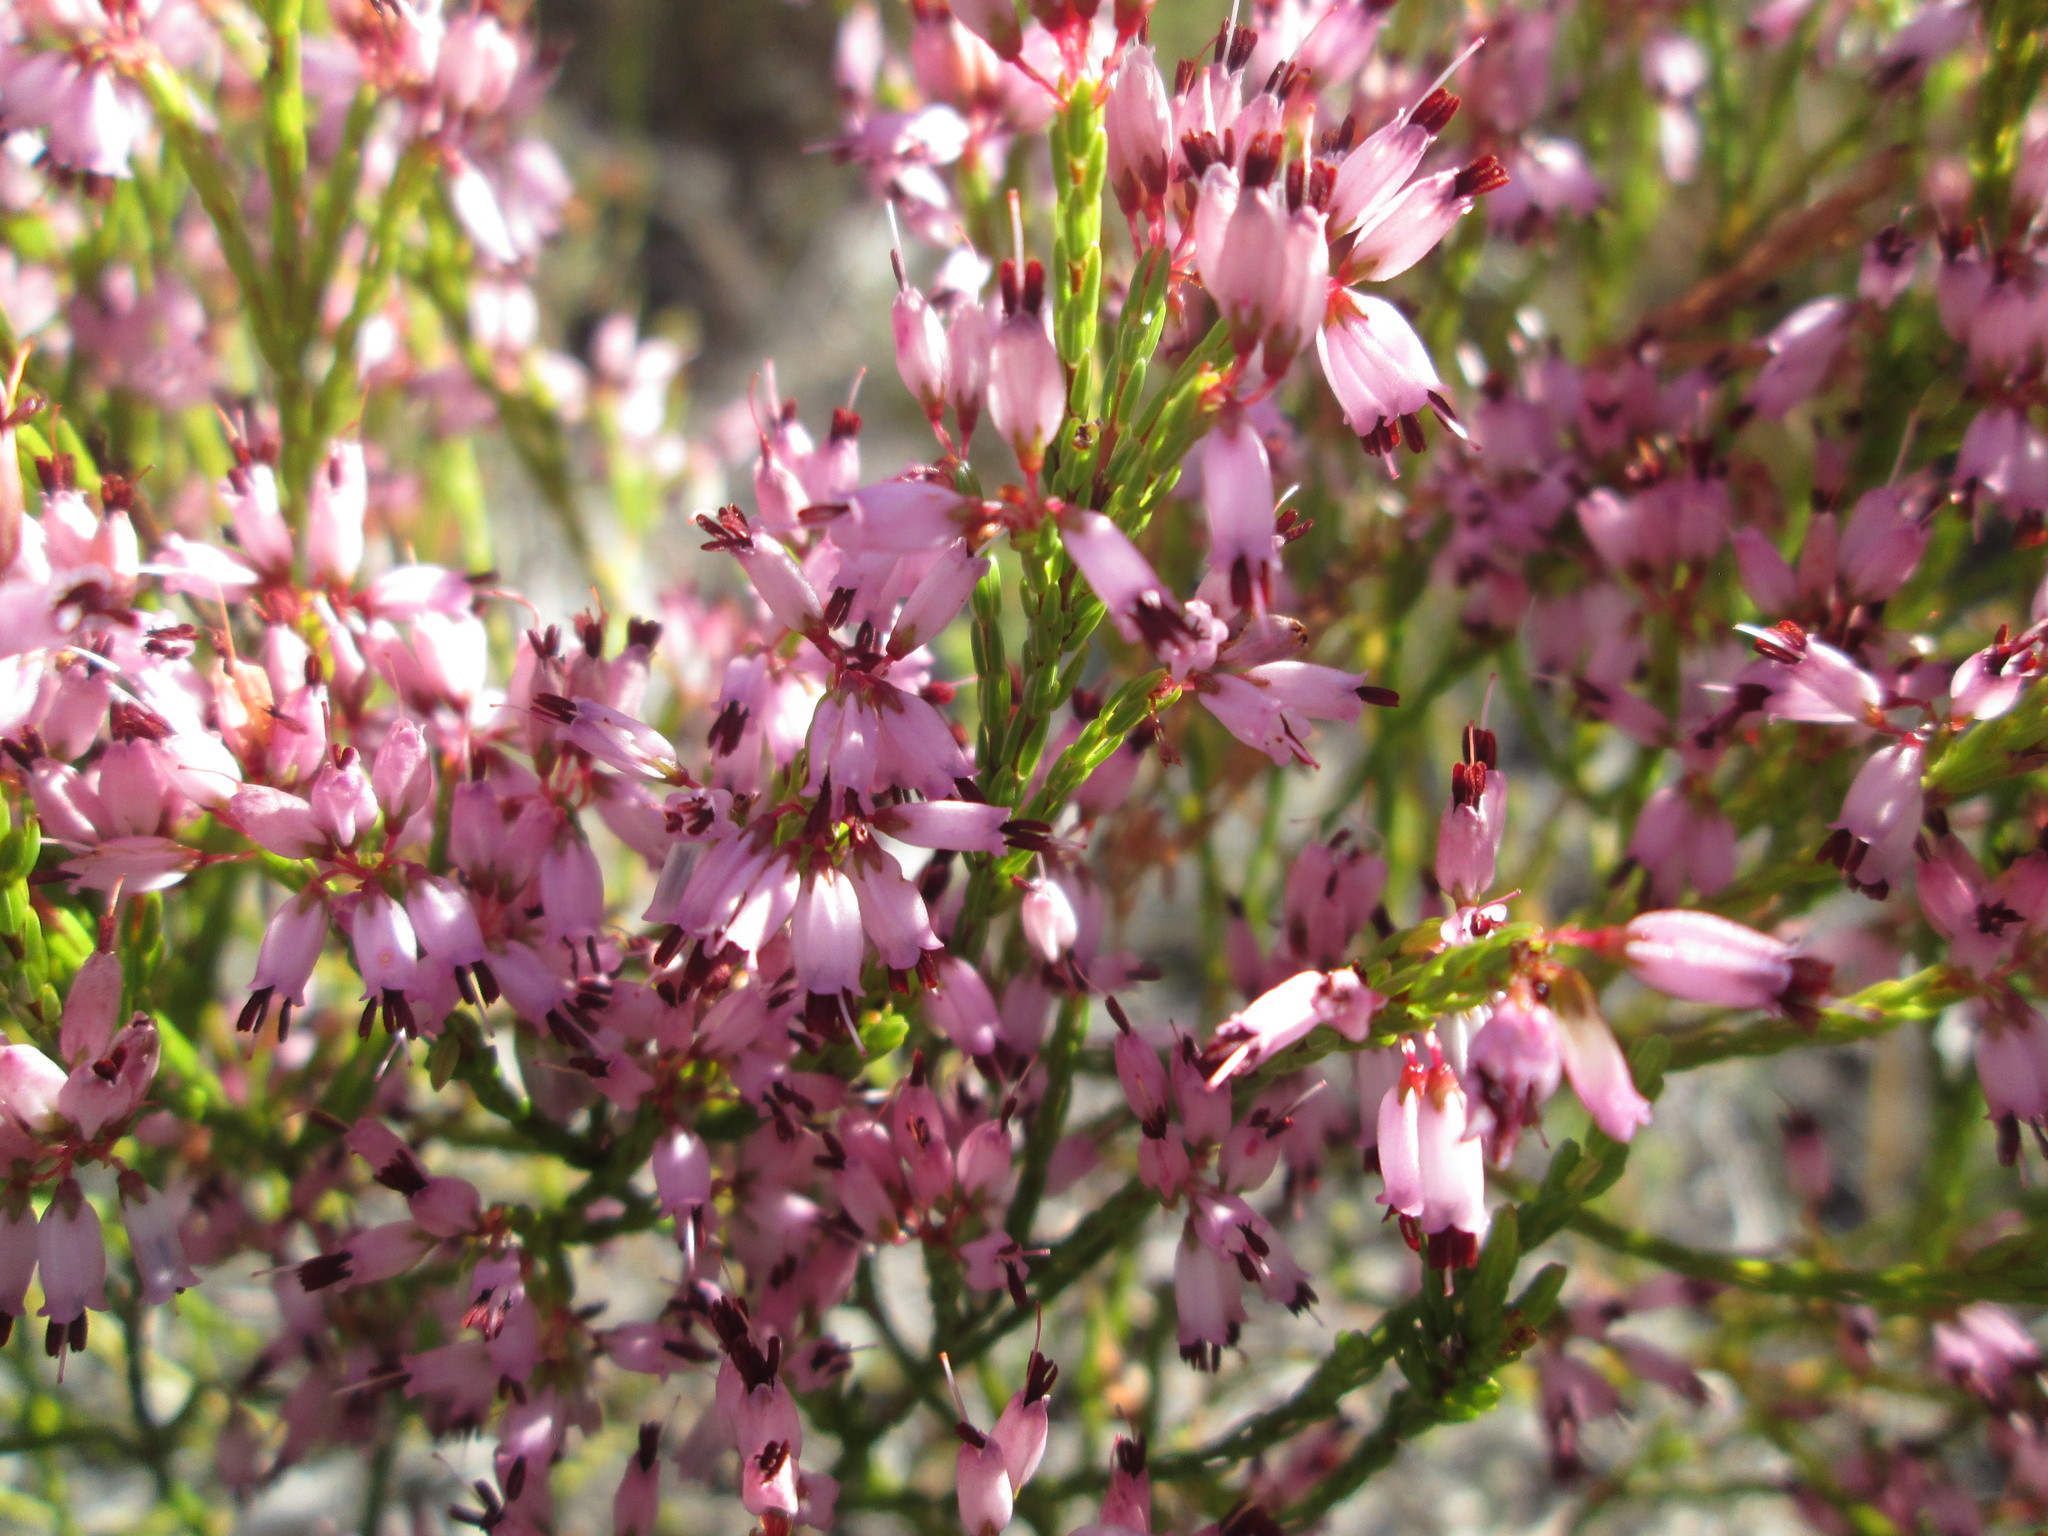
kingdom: Plantae
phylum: Tracheophyta
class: Magnoliopsida
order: Ericales
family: Ericaceae
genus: Erica
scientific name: Erica equisetifolia
